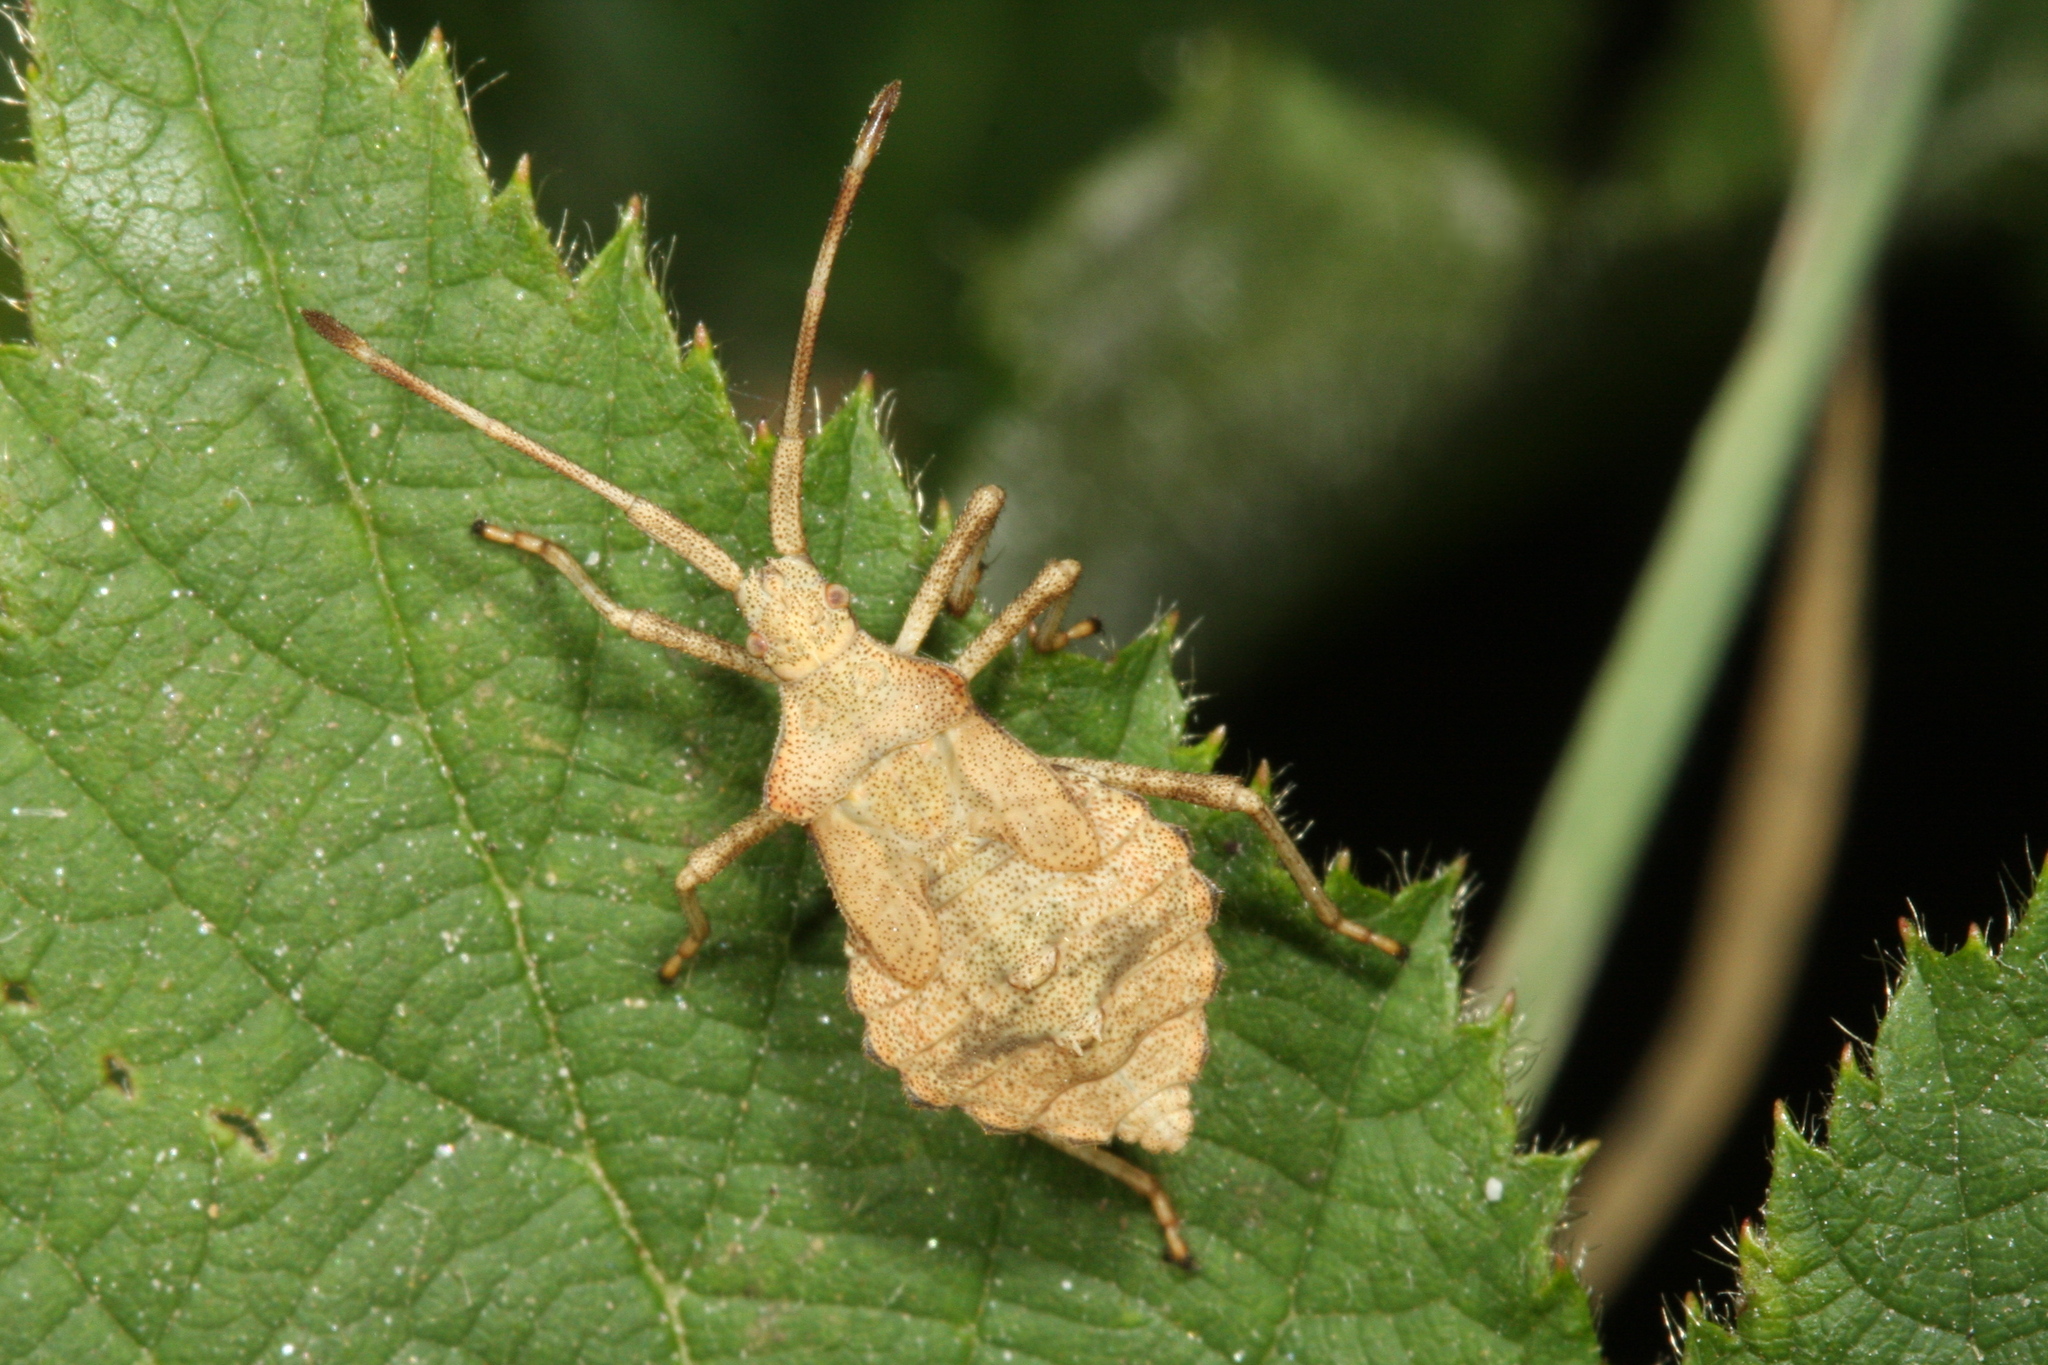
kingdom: Animalia
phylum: Arthropoda
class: Insecta
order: Hemiptera
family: Coreidae
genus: Coreus
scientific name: Coreus marginatus
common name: Dock bug
